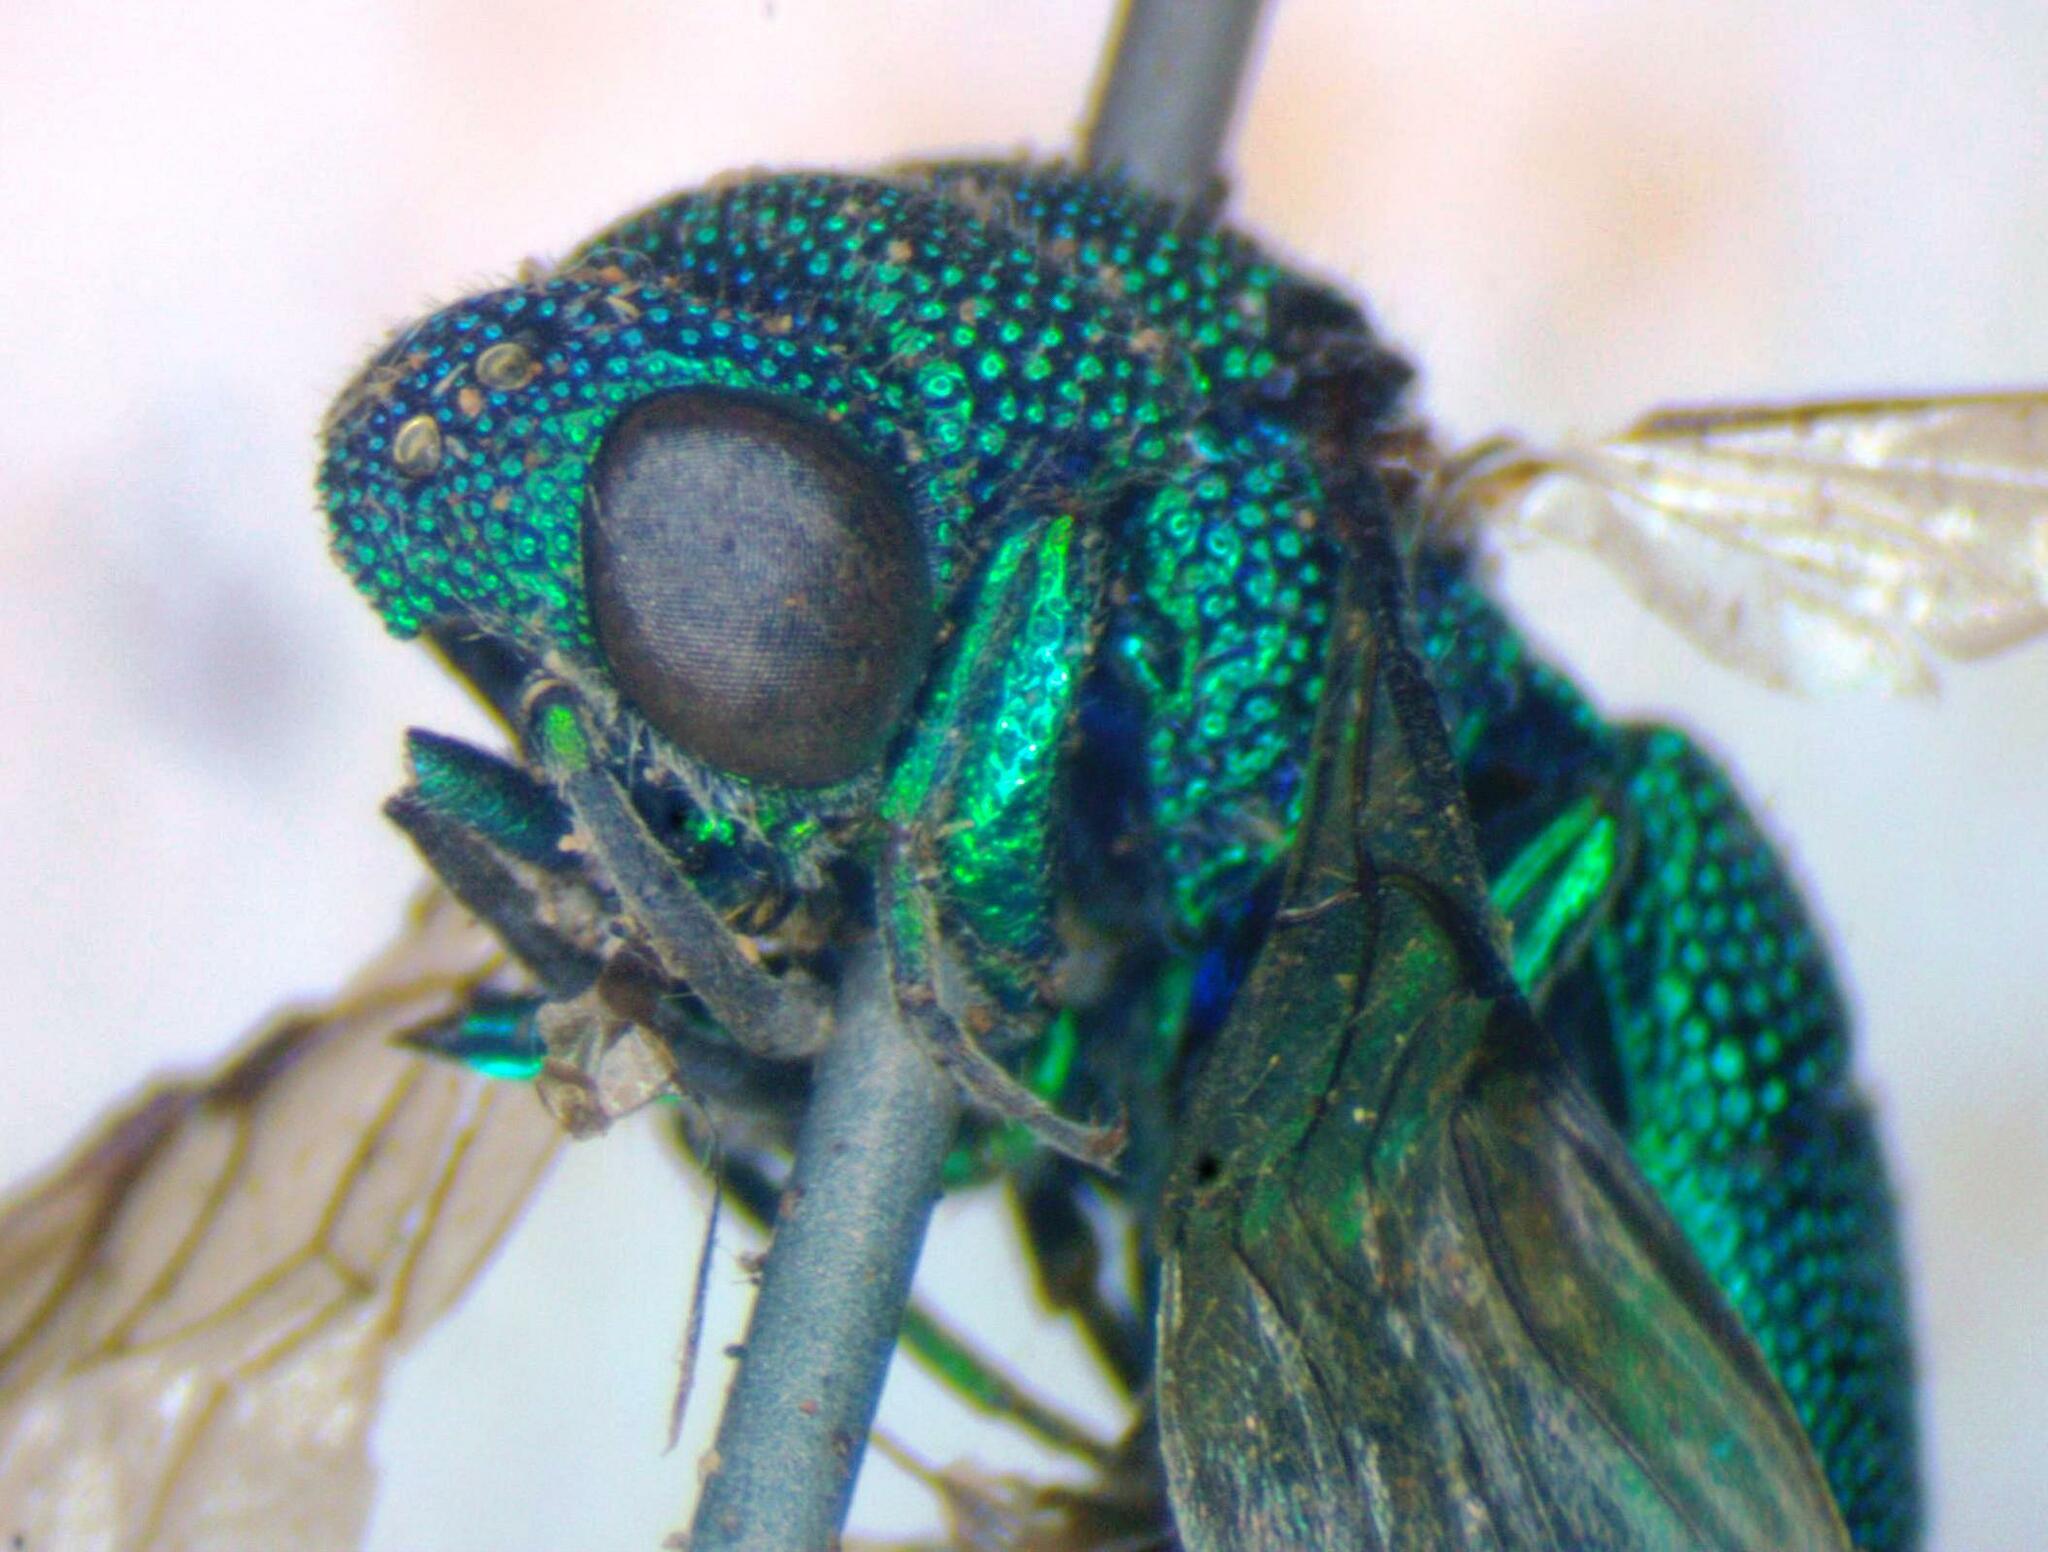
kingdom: Animalia
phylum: Arthropoda
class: Insecta
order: Hymenoptera
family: Chrysididae
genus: Neochrysis
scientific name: Neochrysis
